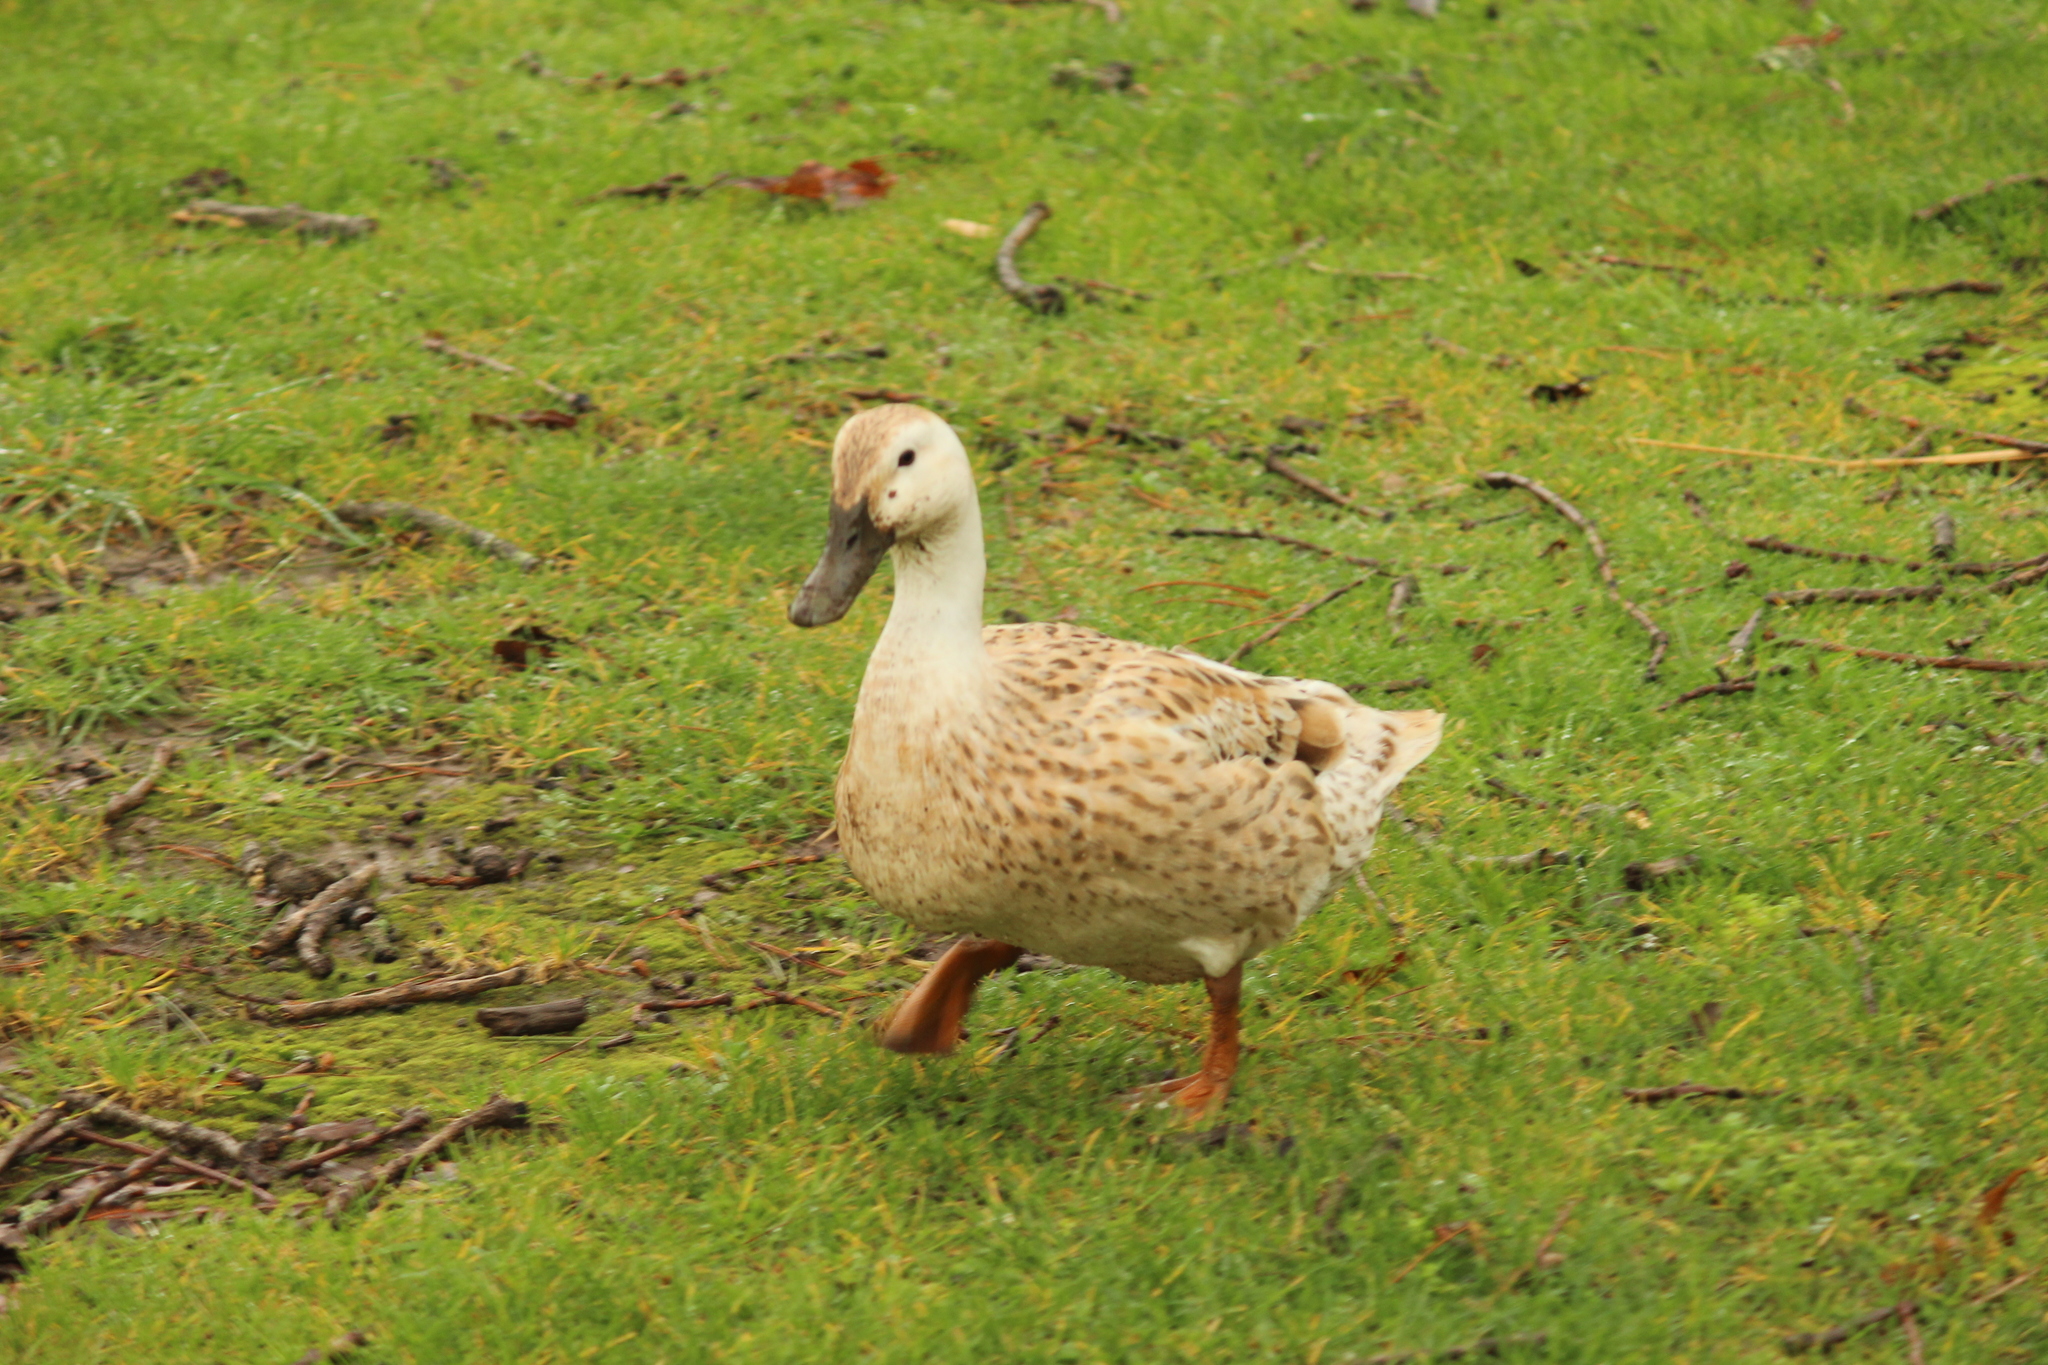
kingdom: Animalia
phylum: Chordata
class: Aves
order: Anseriformes
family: Anatidae
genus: Anas
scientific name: Anas platyrhynchos
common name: Mallard
